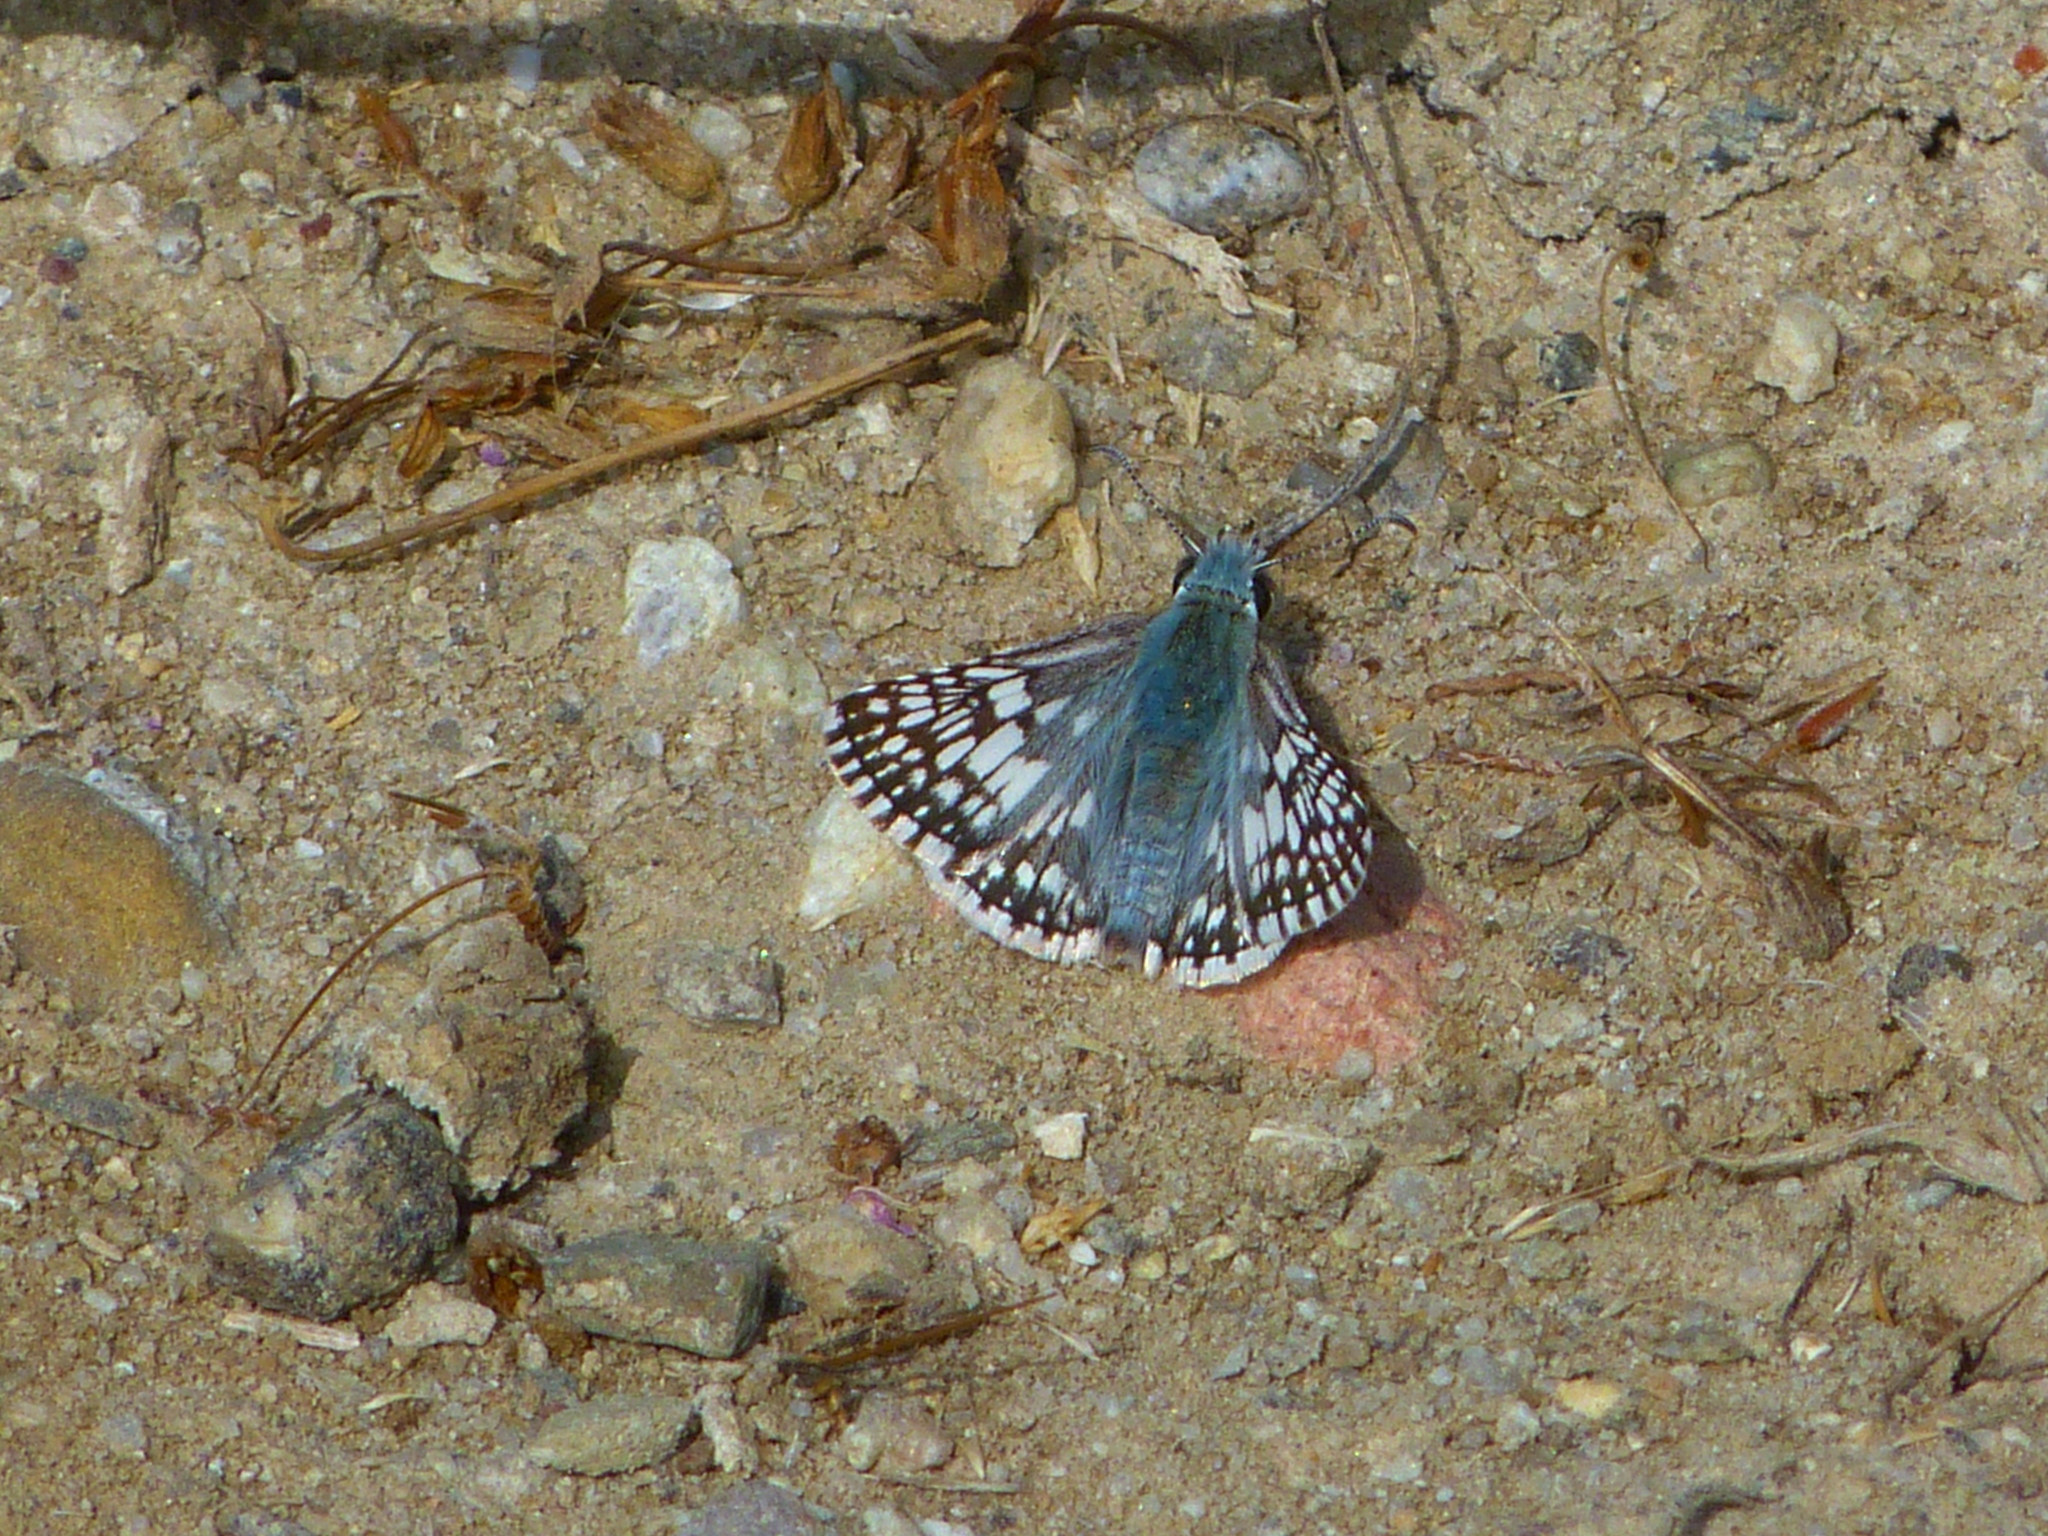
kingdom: Animalia
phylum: Arthropoda
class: Insecta
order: Lepidoptera
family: Hesperiidae
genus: Burnsius
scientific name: Burnsius
